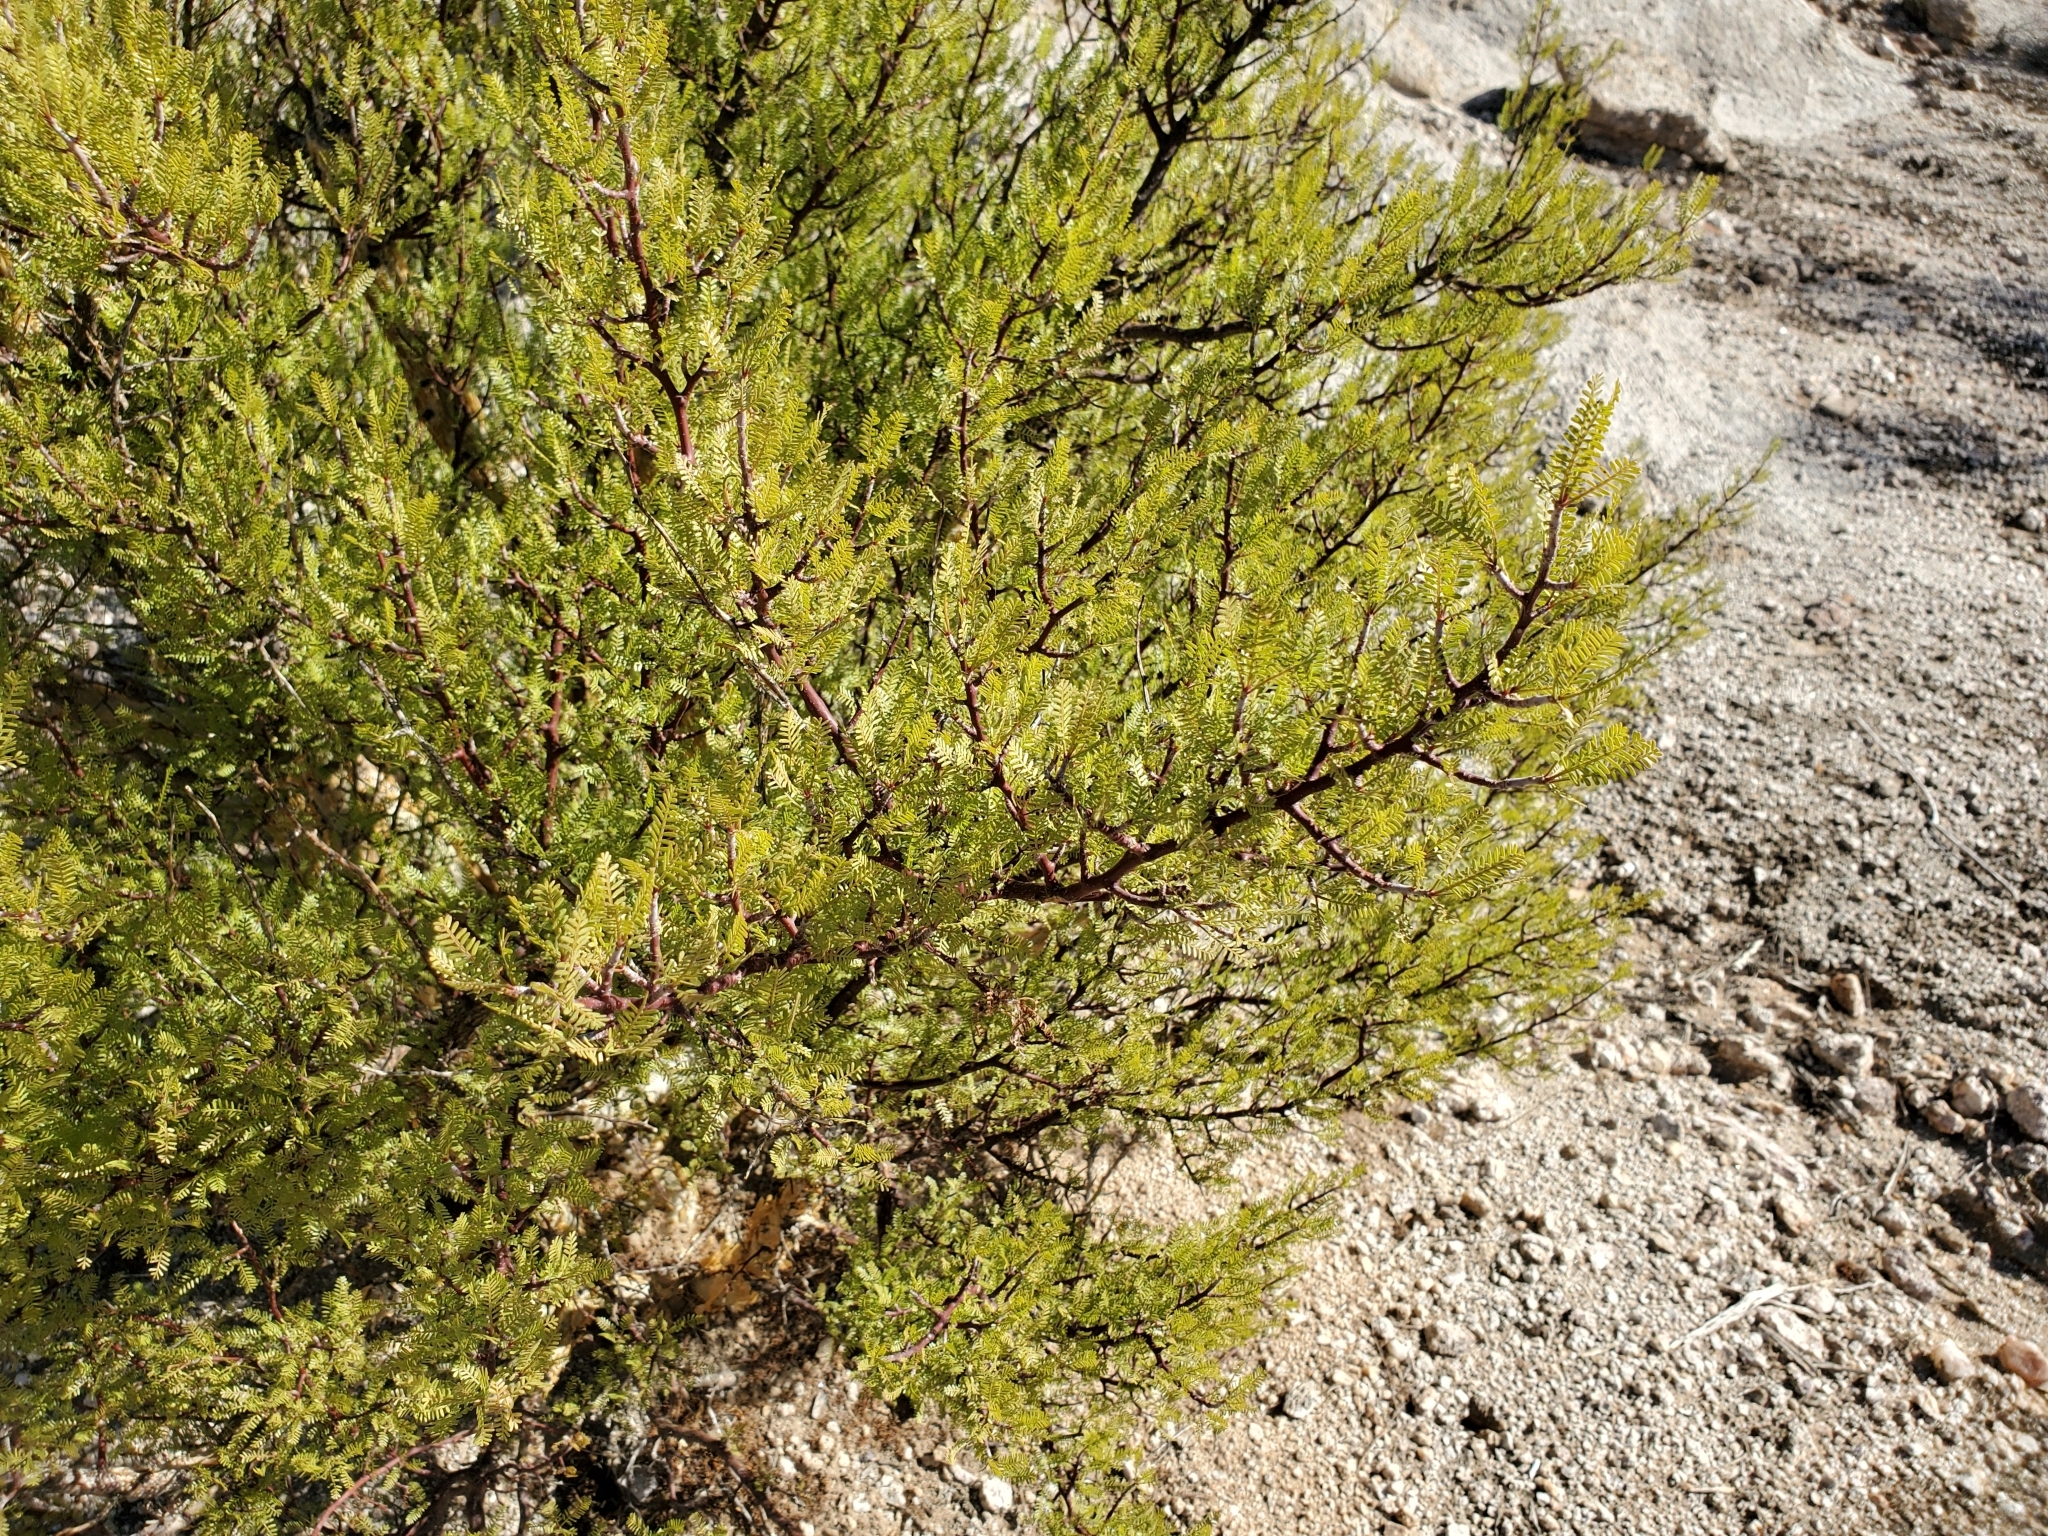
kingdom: Plantae
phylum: Tracheophyta
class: Magnoliopsida
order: Sapindales
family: Burseraceae
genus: Bursera
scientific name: Bursera microphylla
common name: Elephant tree
